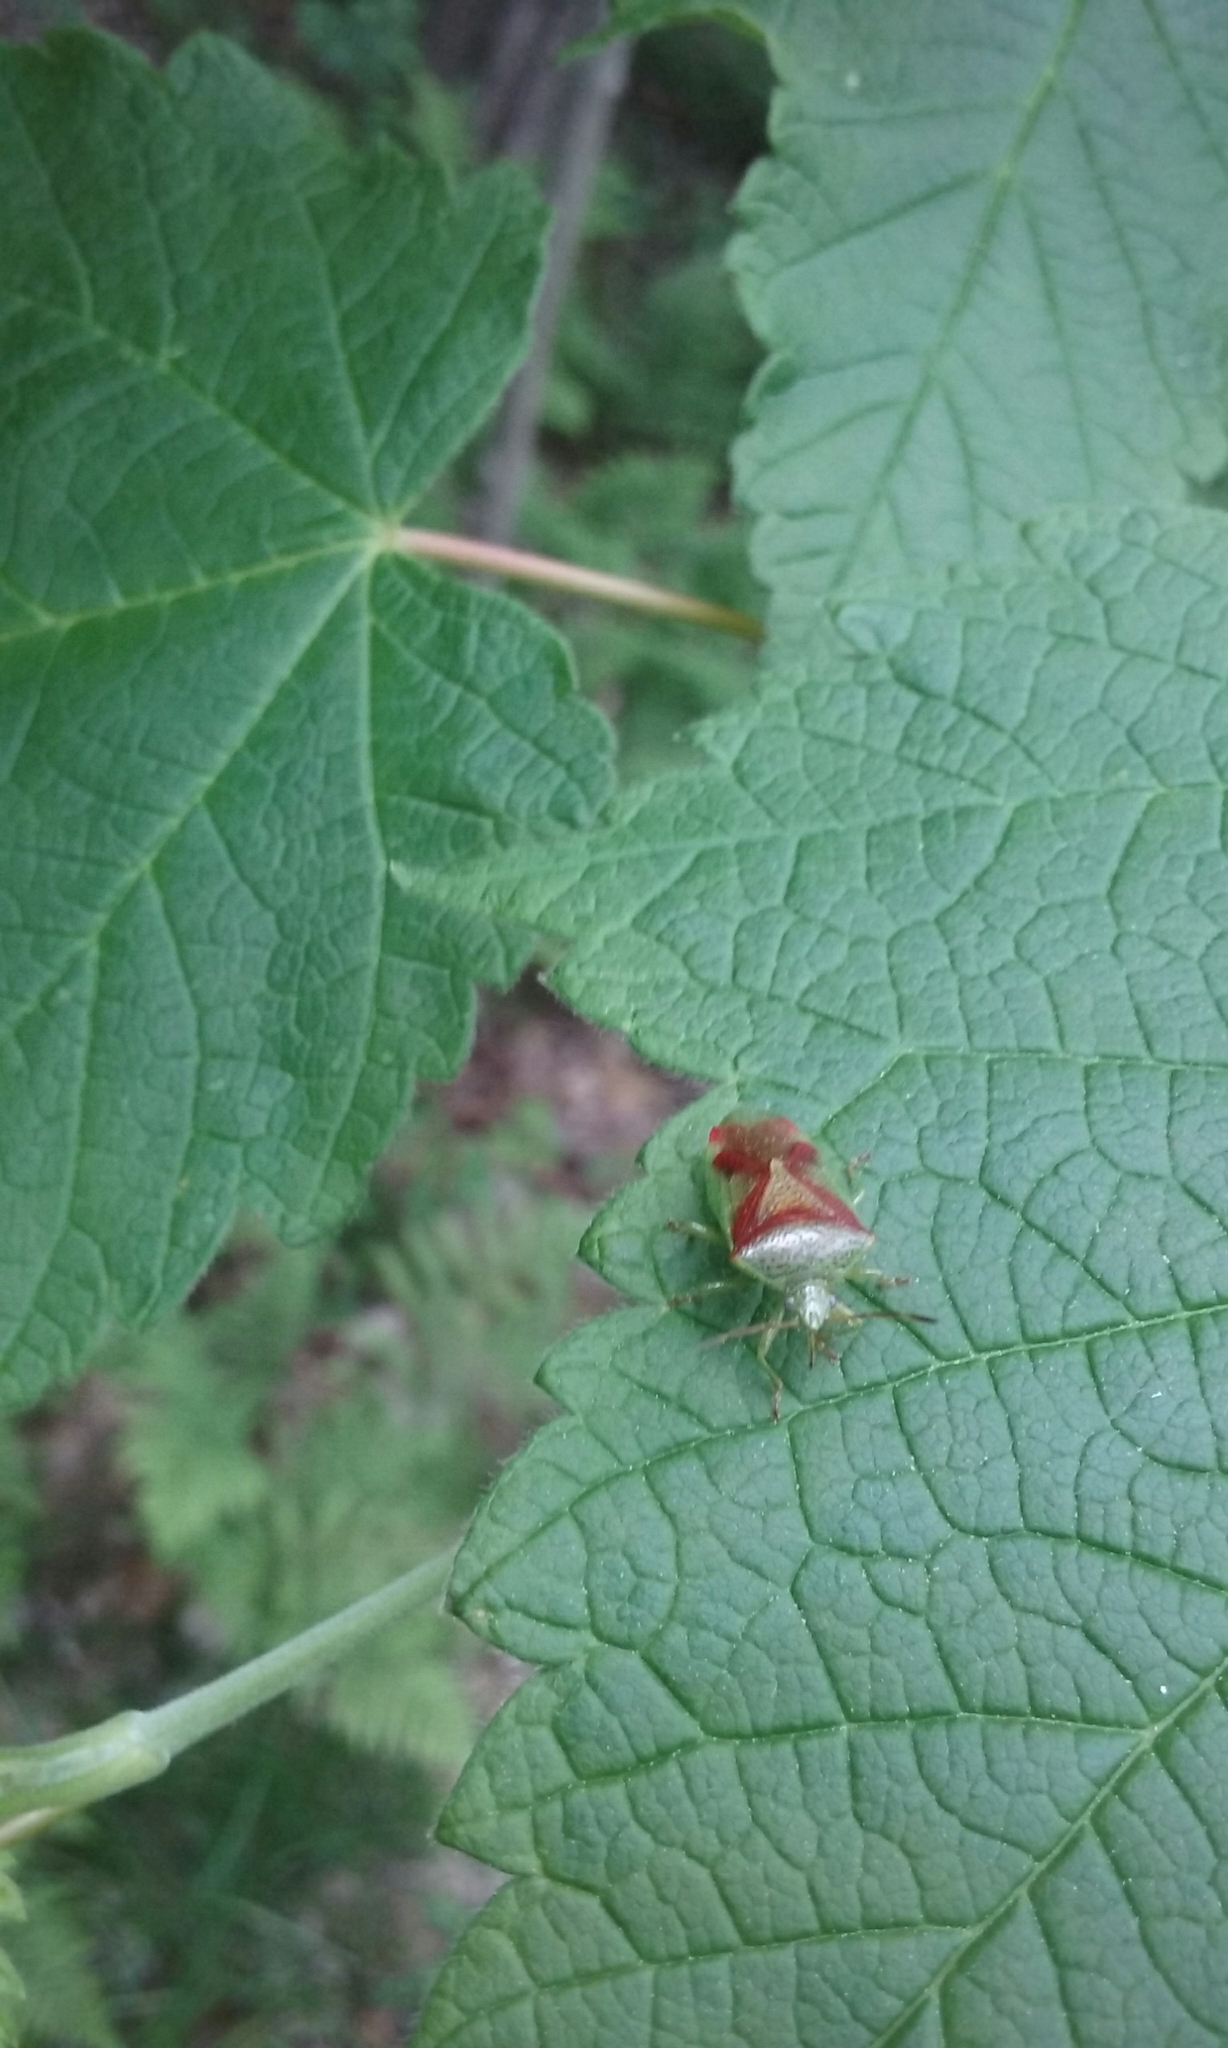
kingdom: Animalia
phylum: Arthropoda
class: Insecta
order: Hemiptera
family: Acanthosomatidae
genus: Elasmostethus
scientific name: Elasmostethus cruciatus
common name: Red-cross shield bug
